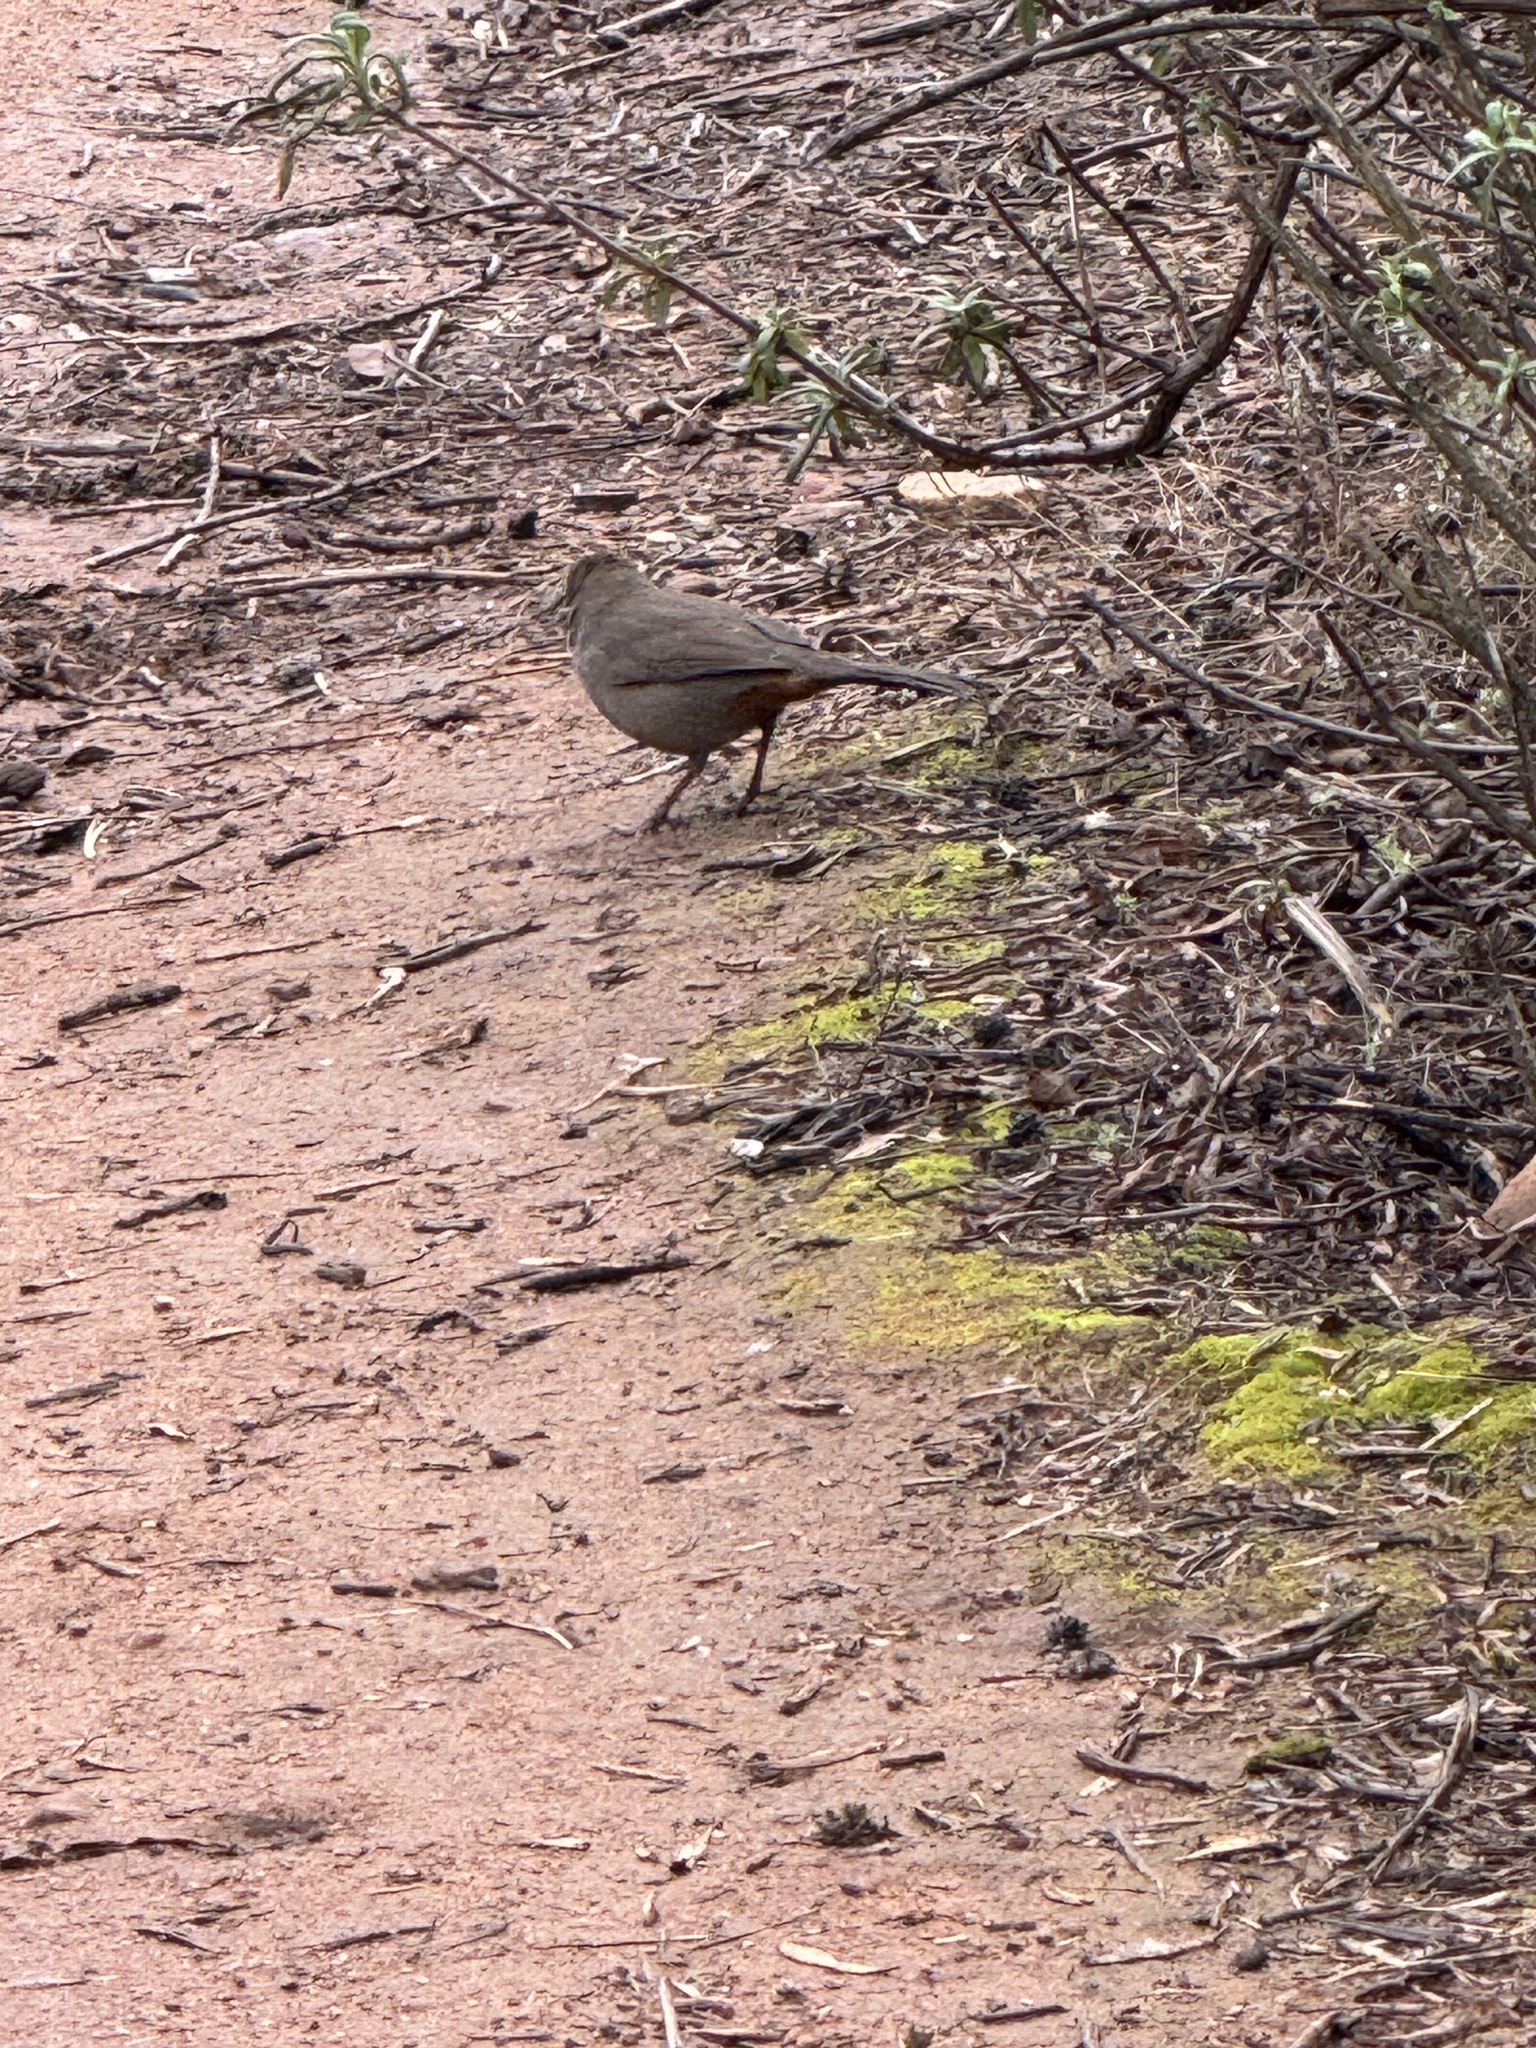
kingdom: Animalia
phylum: Chordata
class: Aves
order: Passeriformes
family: Passerellidae
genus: Melozone
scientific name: Melozone crissalis
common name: California towhee
